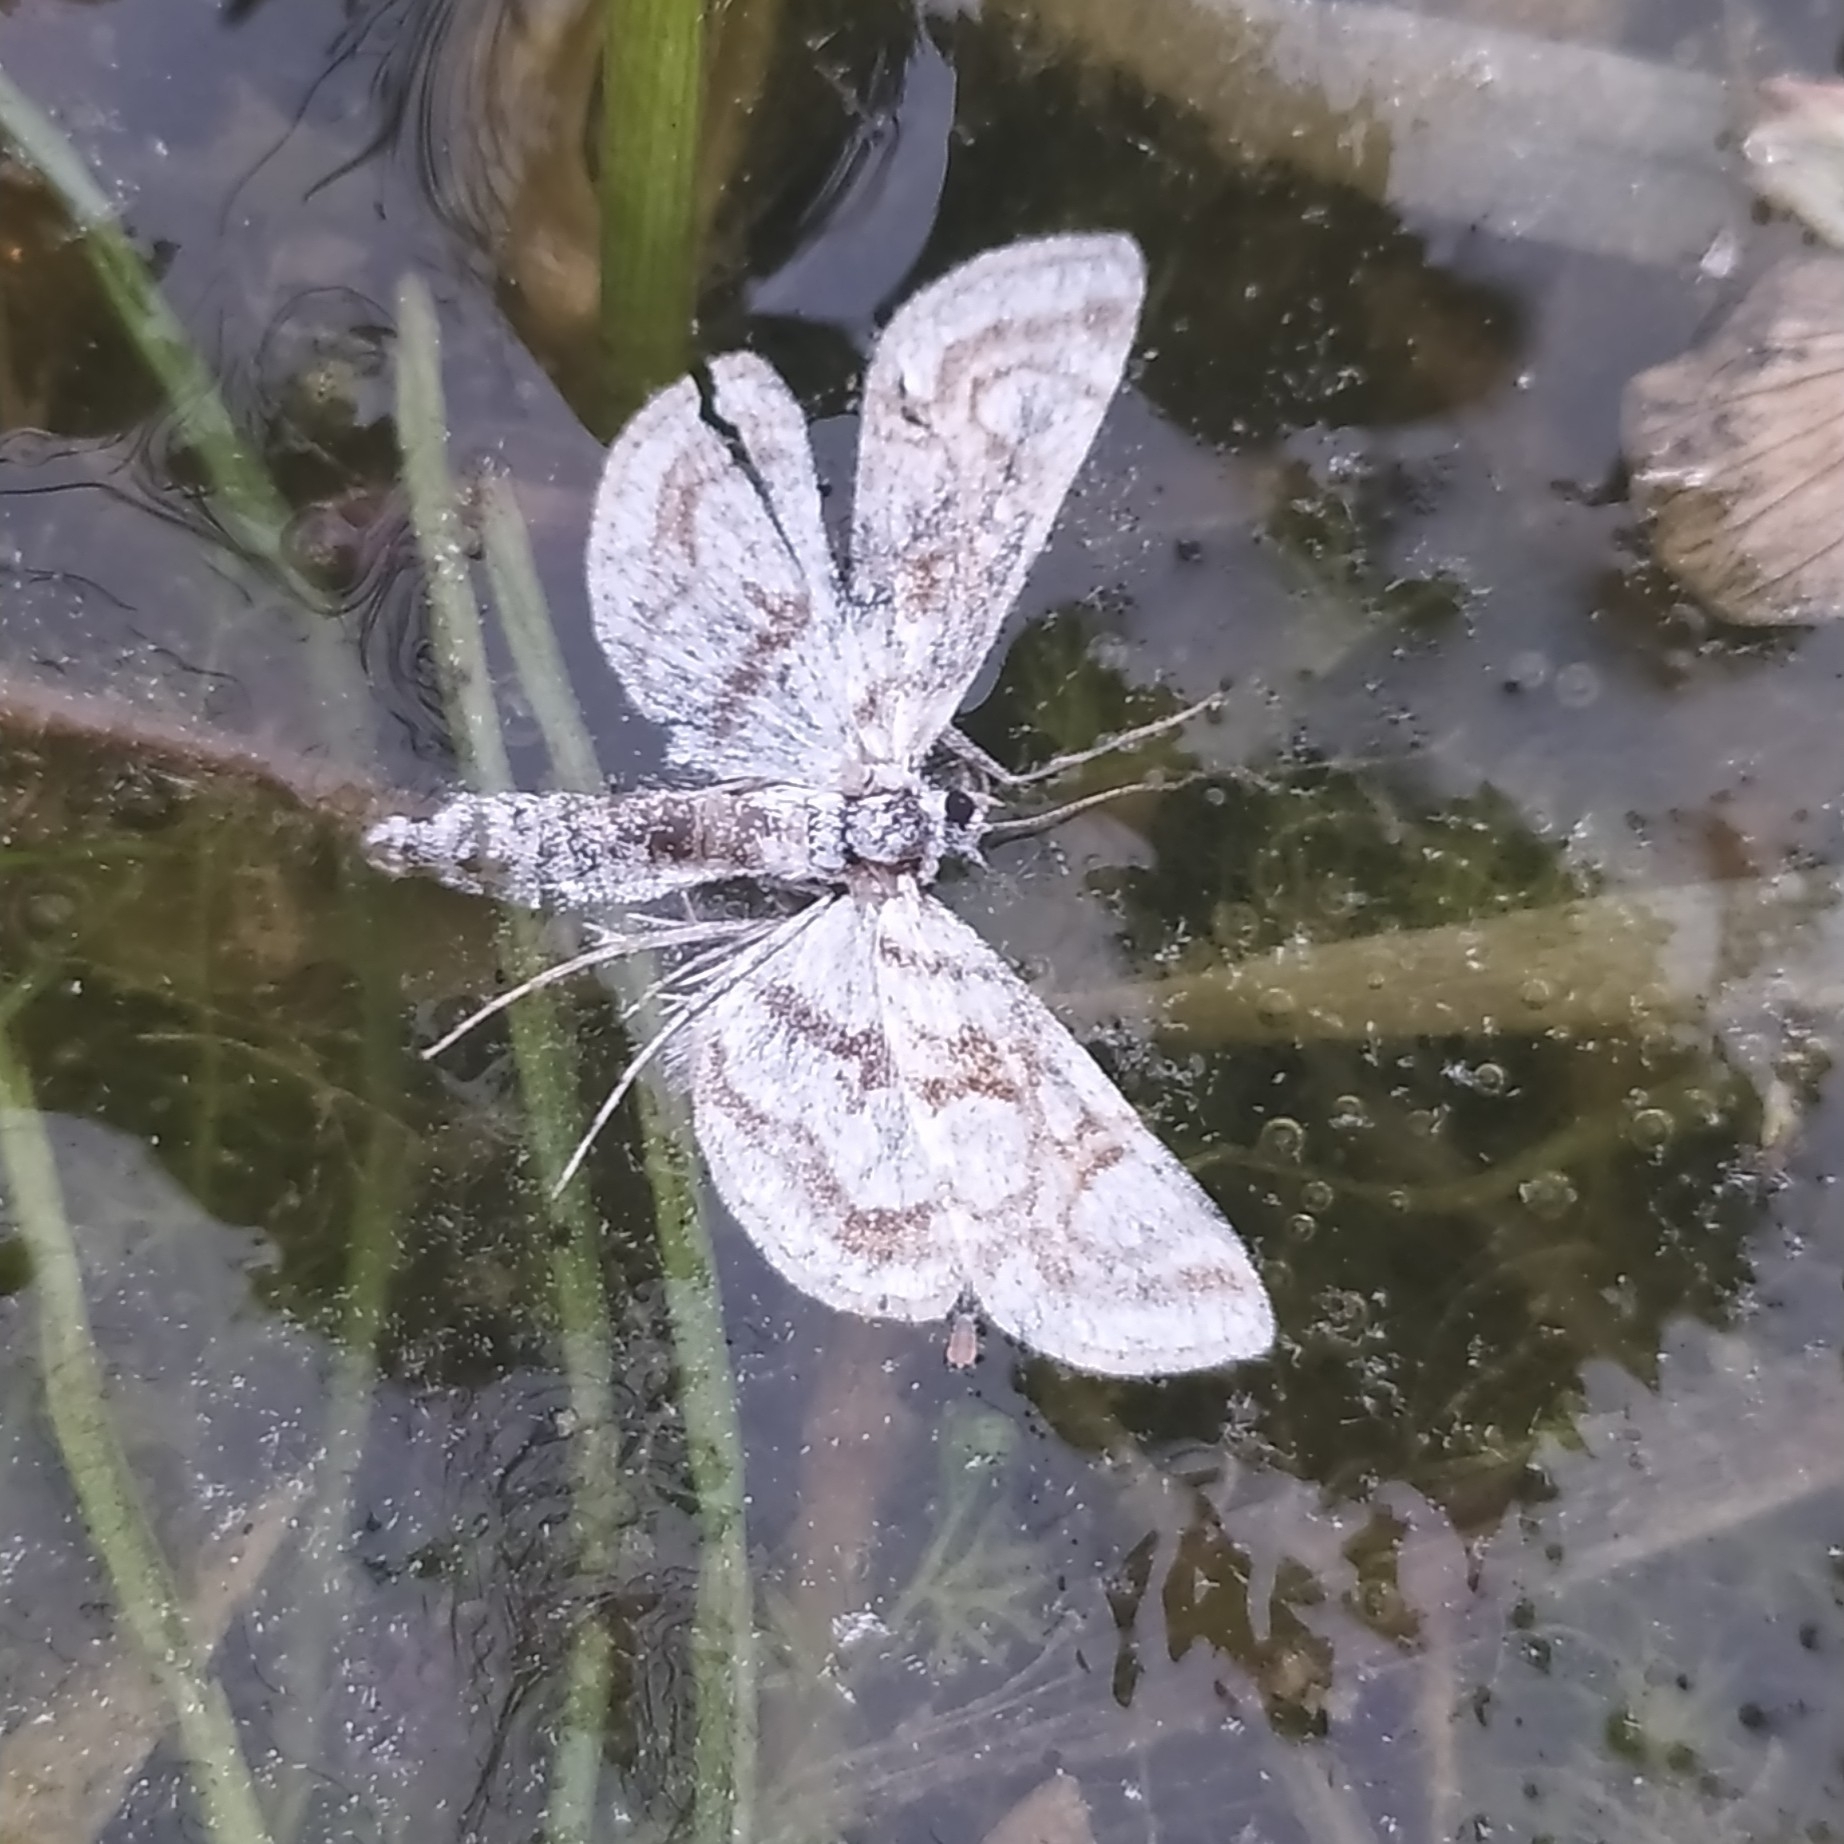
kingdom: Animalia
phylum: Arthropoda
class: Insecta
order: Lepidoptera
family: Crambidae
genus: Nymphula
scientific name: Nymphula nitidulata
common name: Beautiful china mark
